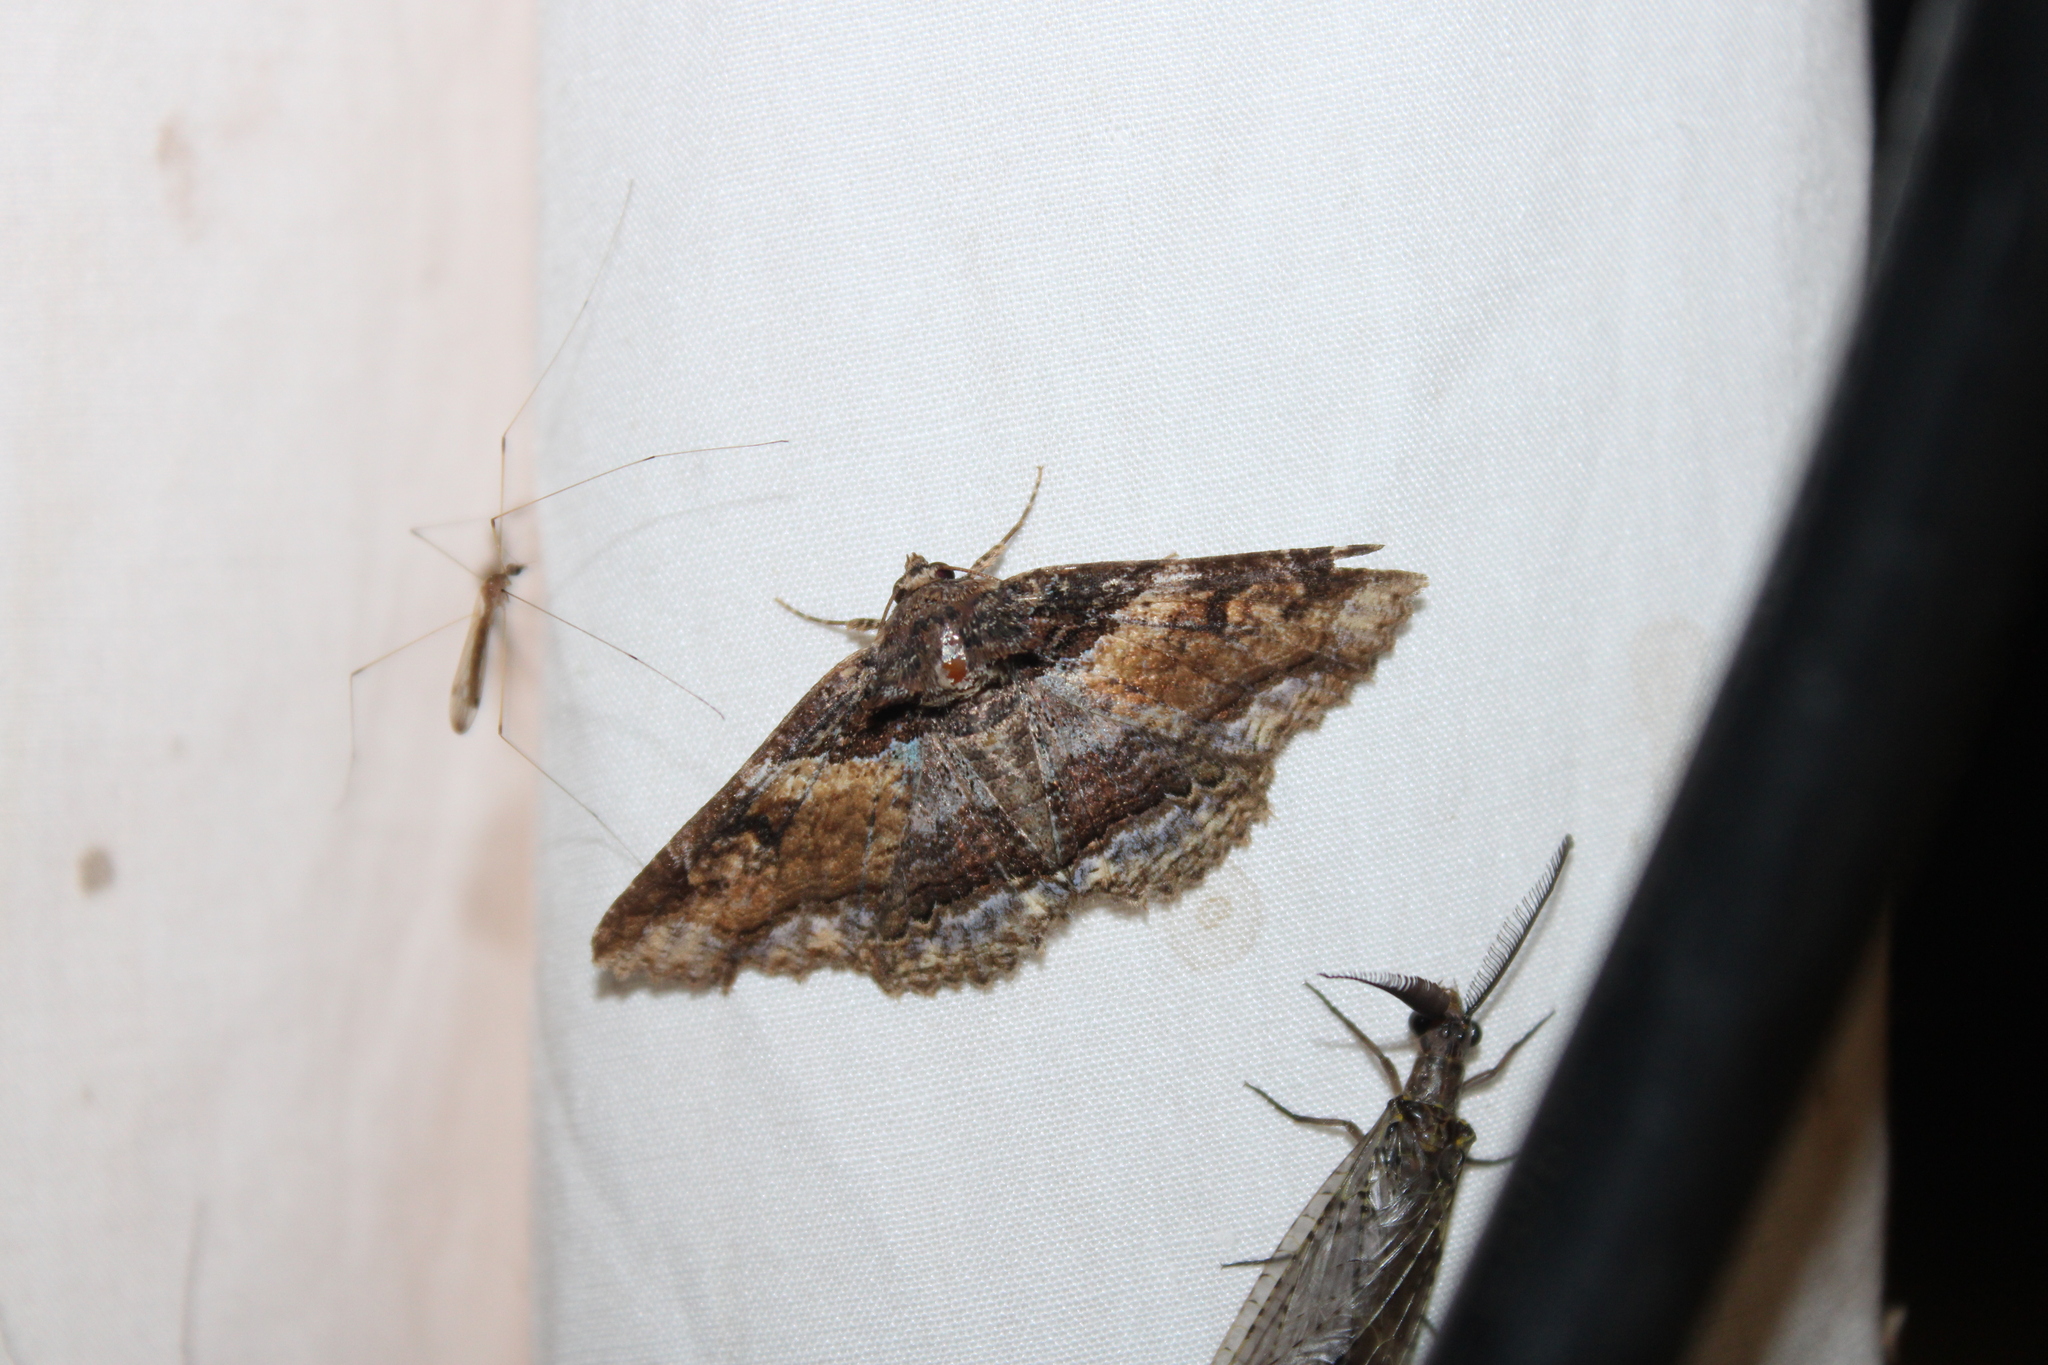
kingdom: Animalia
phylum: Arthropoda
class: Insecta
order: Lepidoptera
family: Erebidae
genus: Zale
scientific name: Zale minerea
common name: Colorful zale moth
